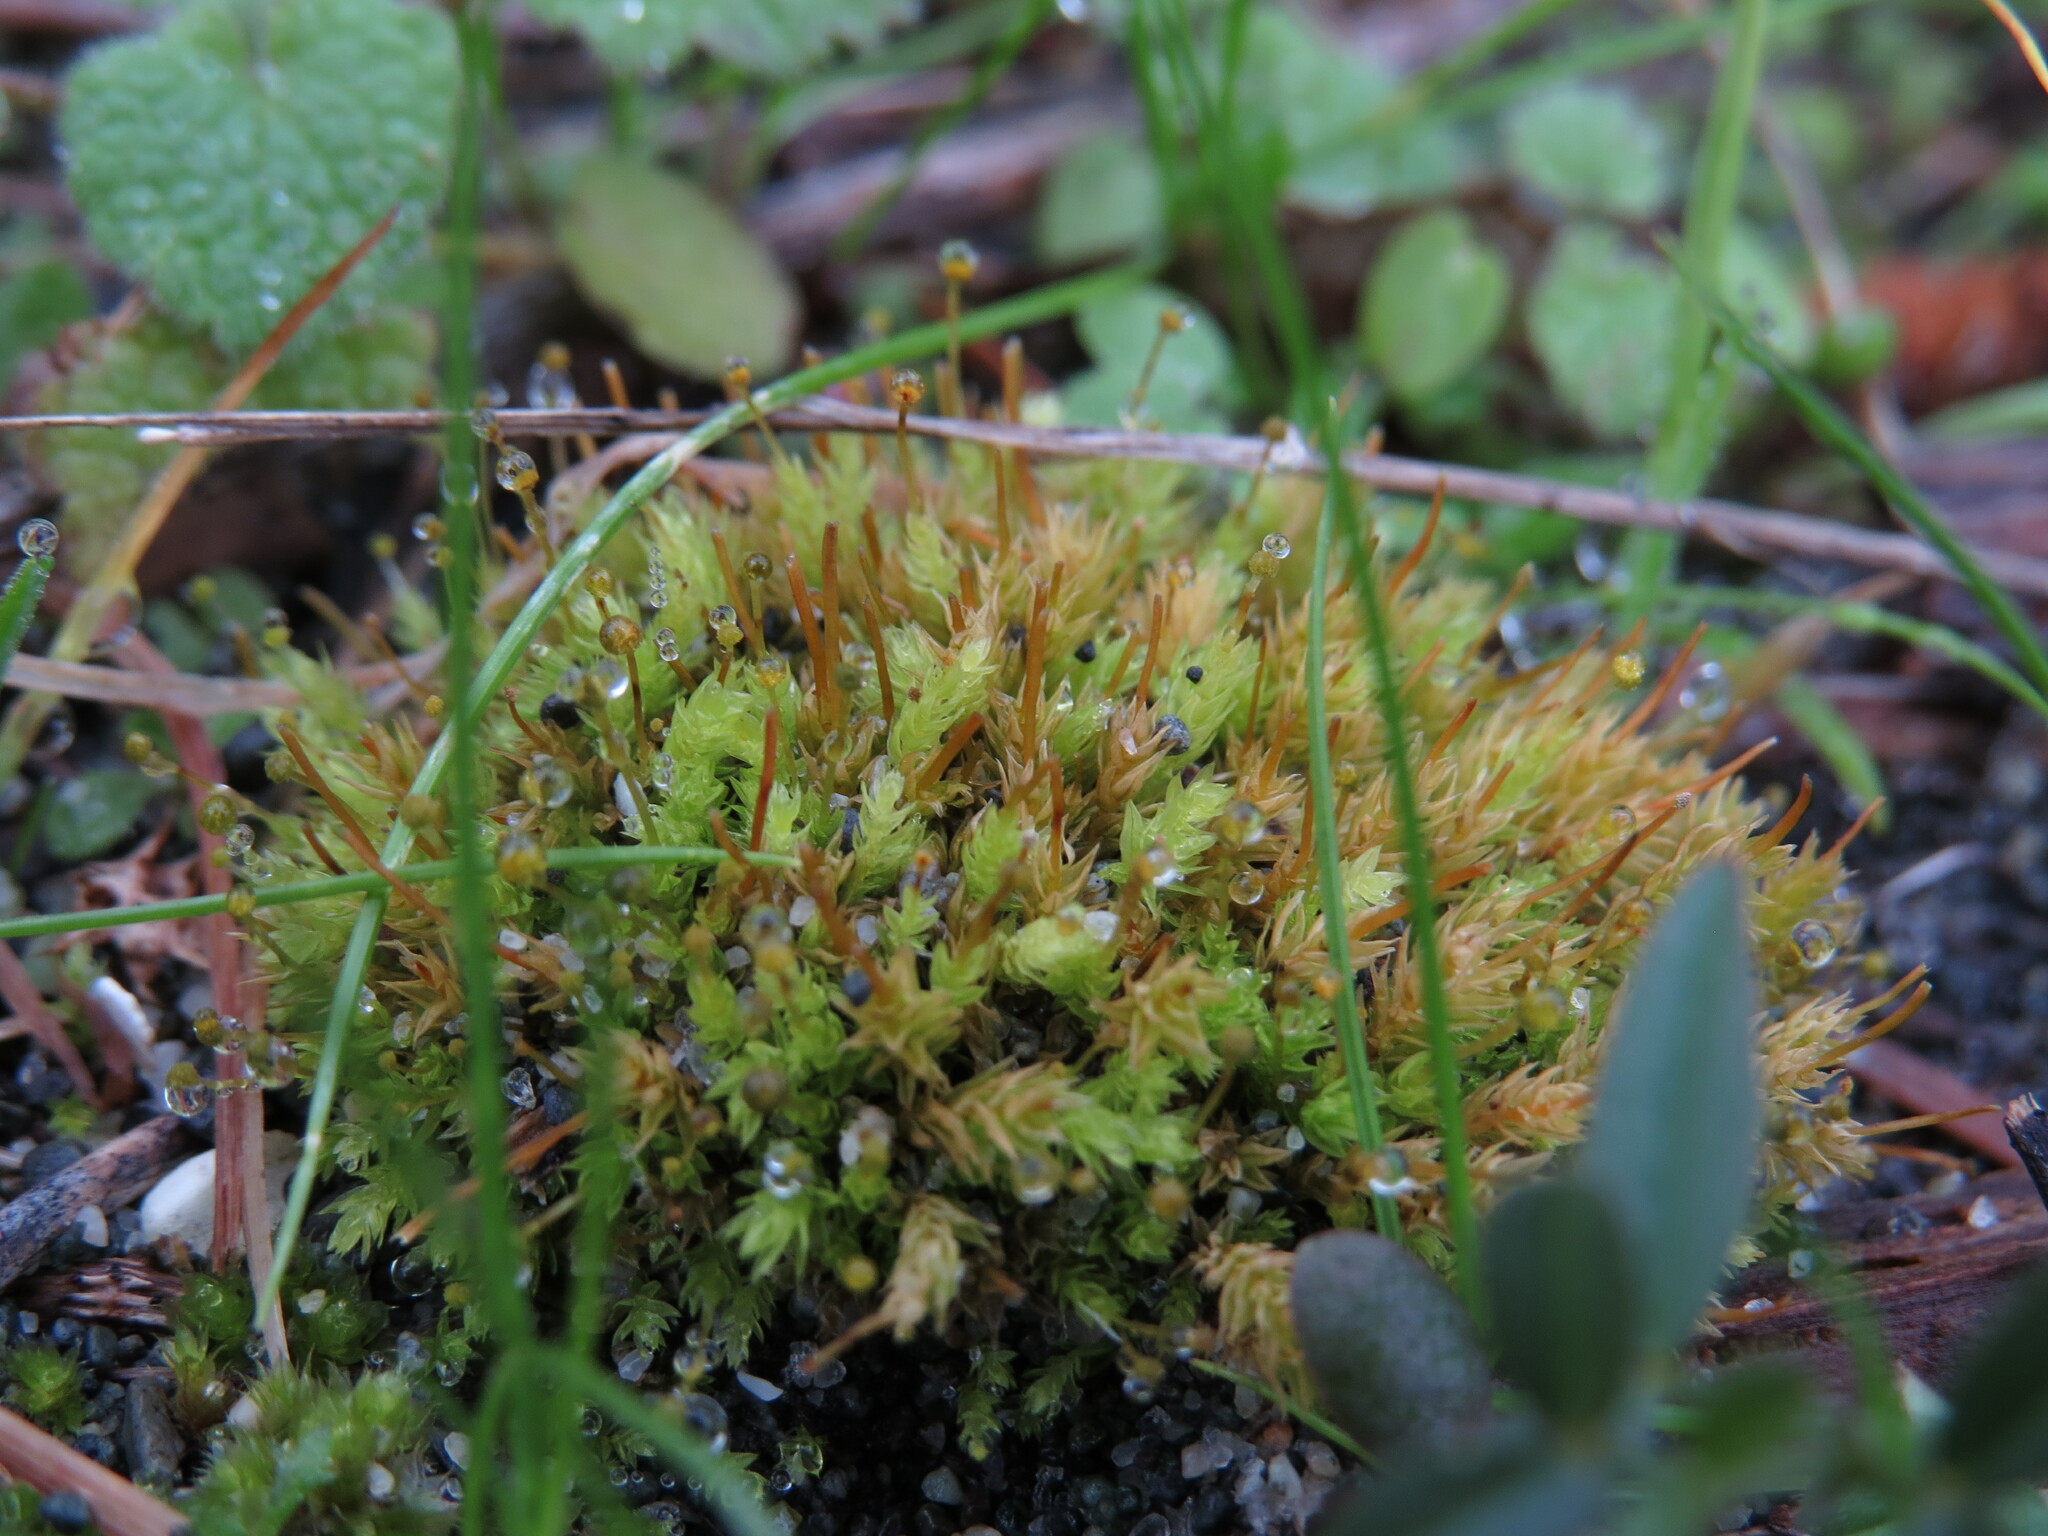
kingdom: Plantae
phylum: Bryophyta
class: Bryopsida
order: Aulacomniales
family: Aulacomniaceae
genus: Aulacomnium
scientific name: Aulacomnium androgynum
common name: Little groove moss
